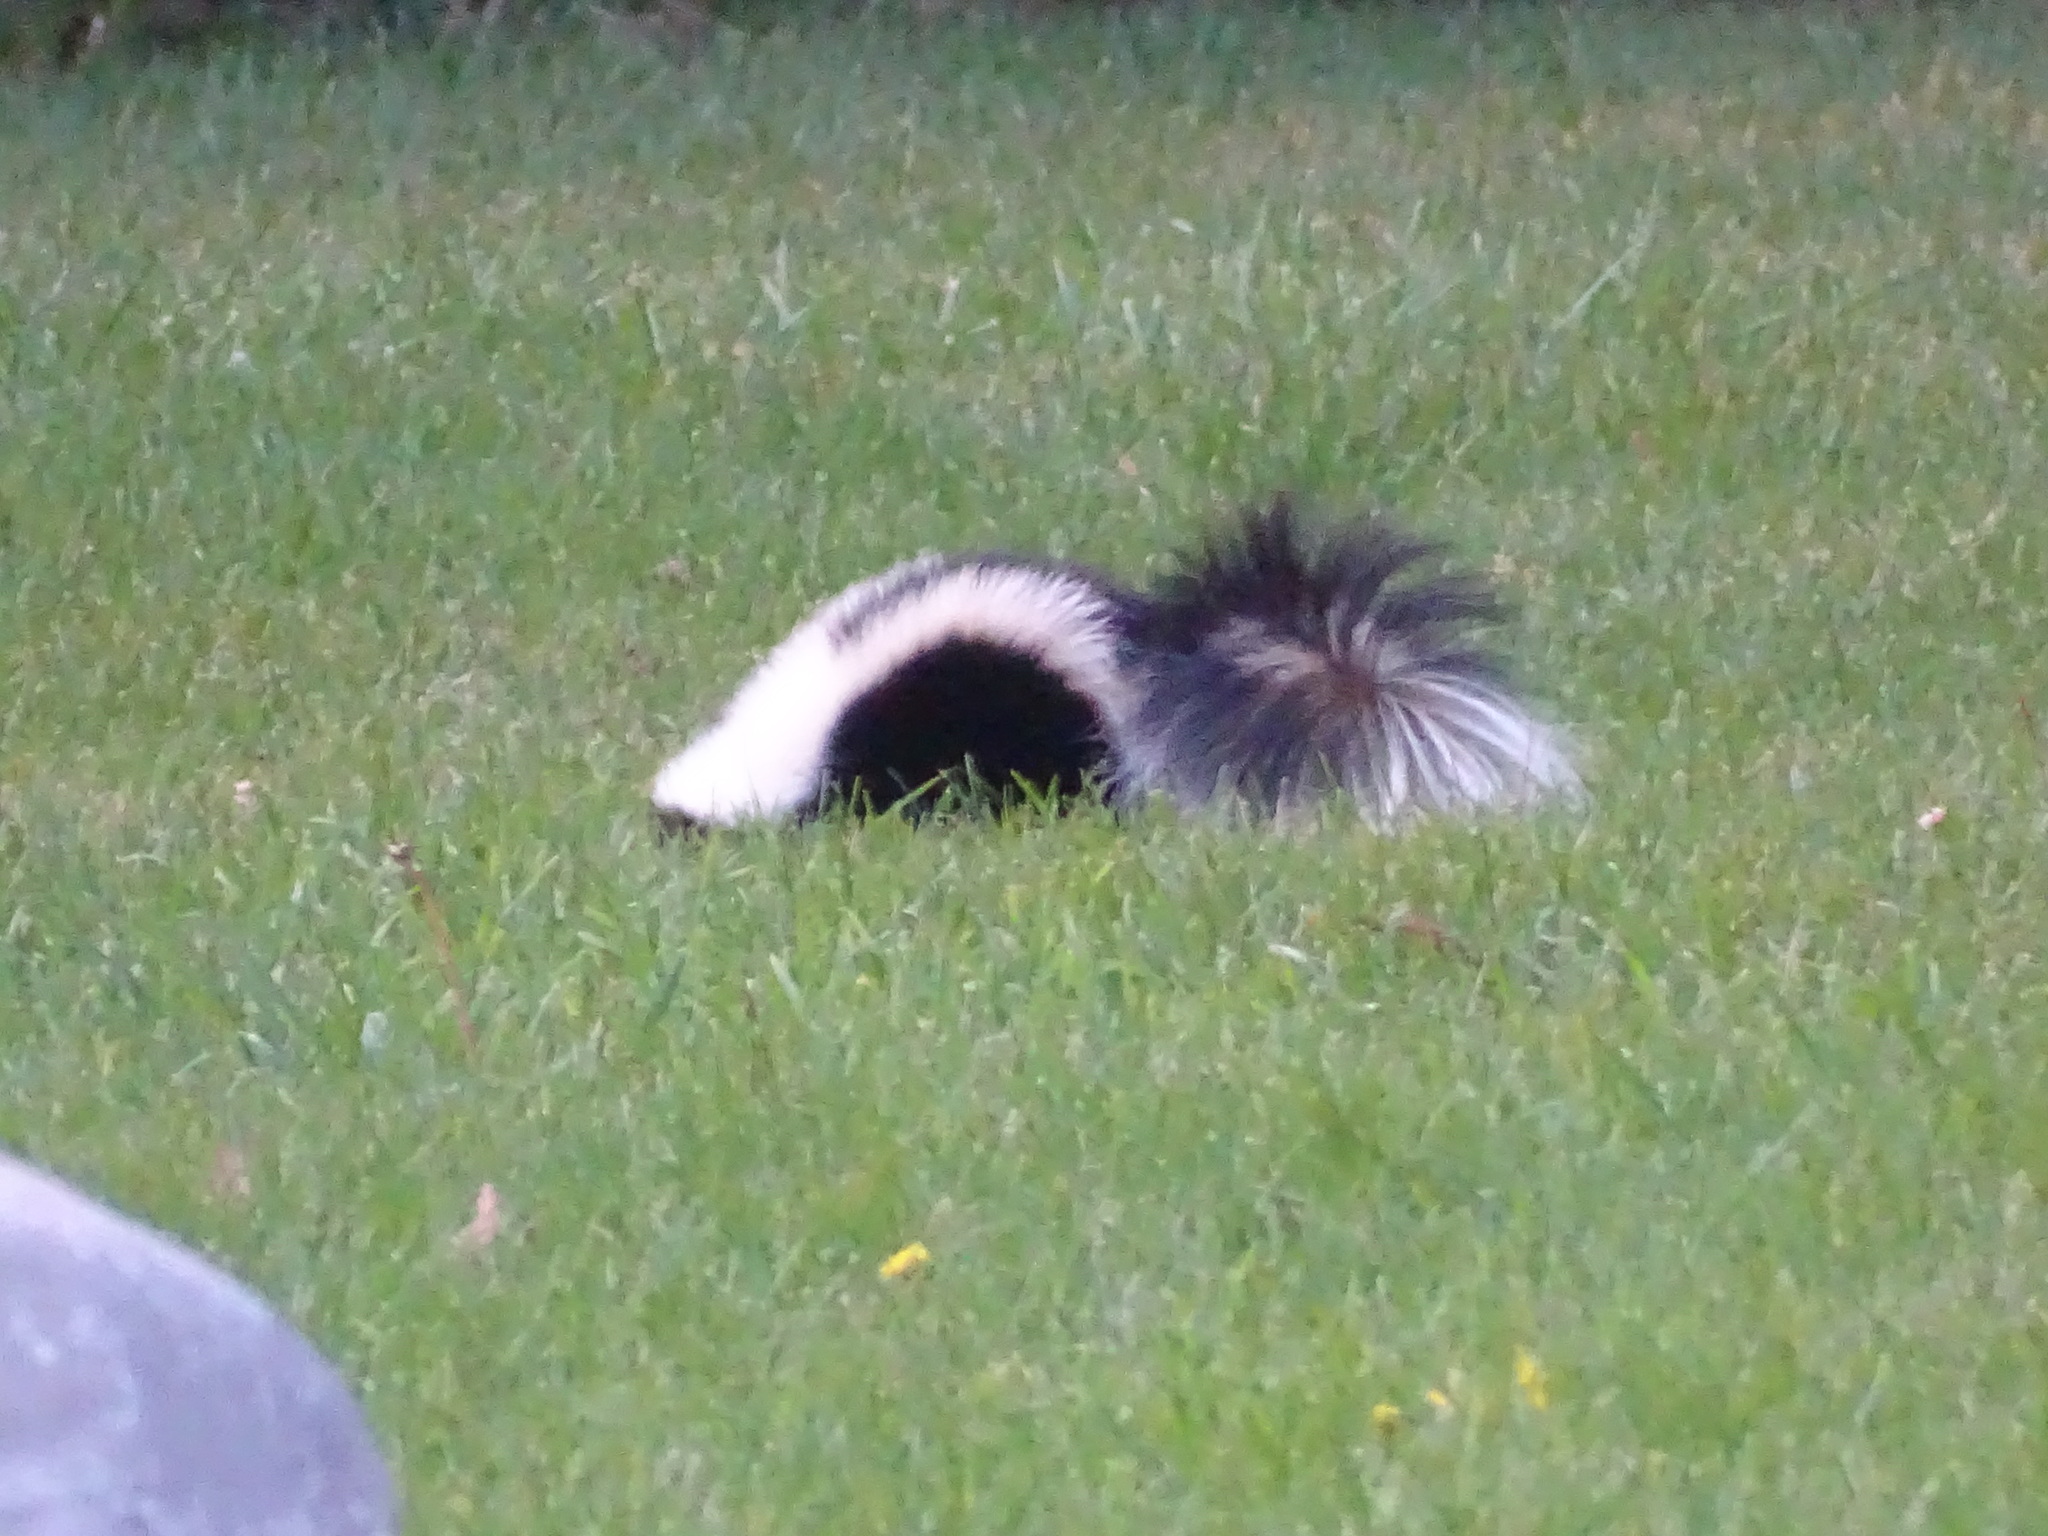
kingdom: Animalia
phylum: Chordata
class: Mammalia
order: Carnivora
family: Mephitidae
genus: Mephitis
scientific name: Mephitis mephitis
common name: Striped skunk
